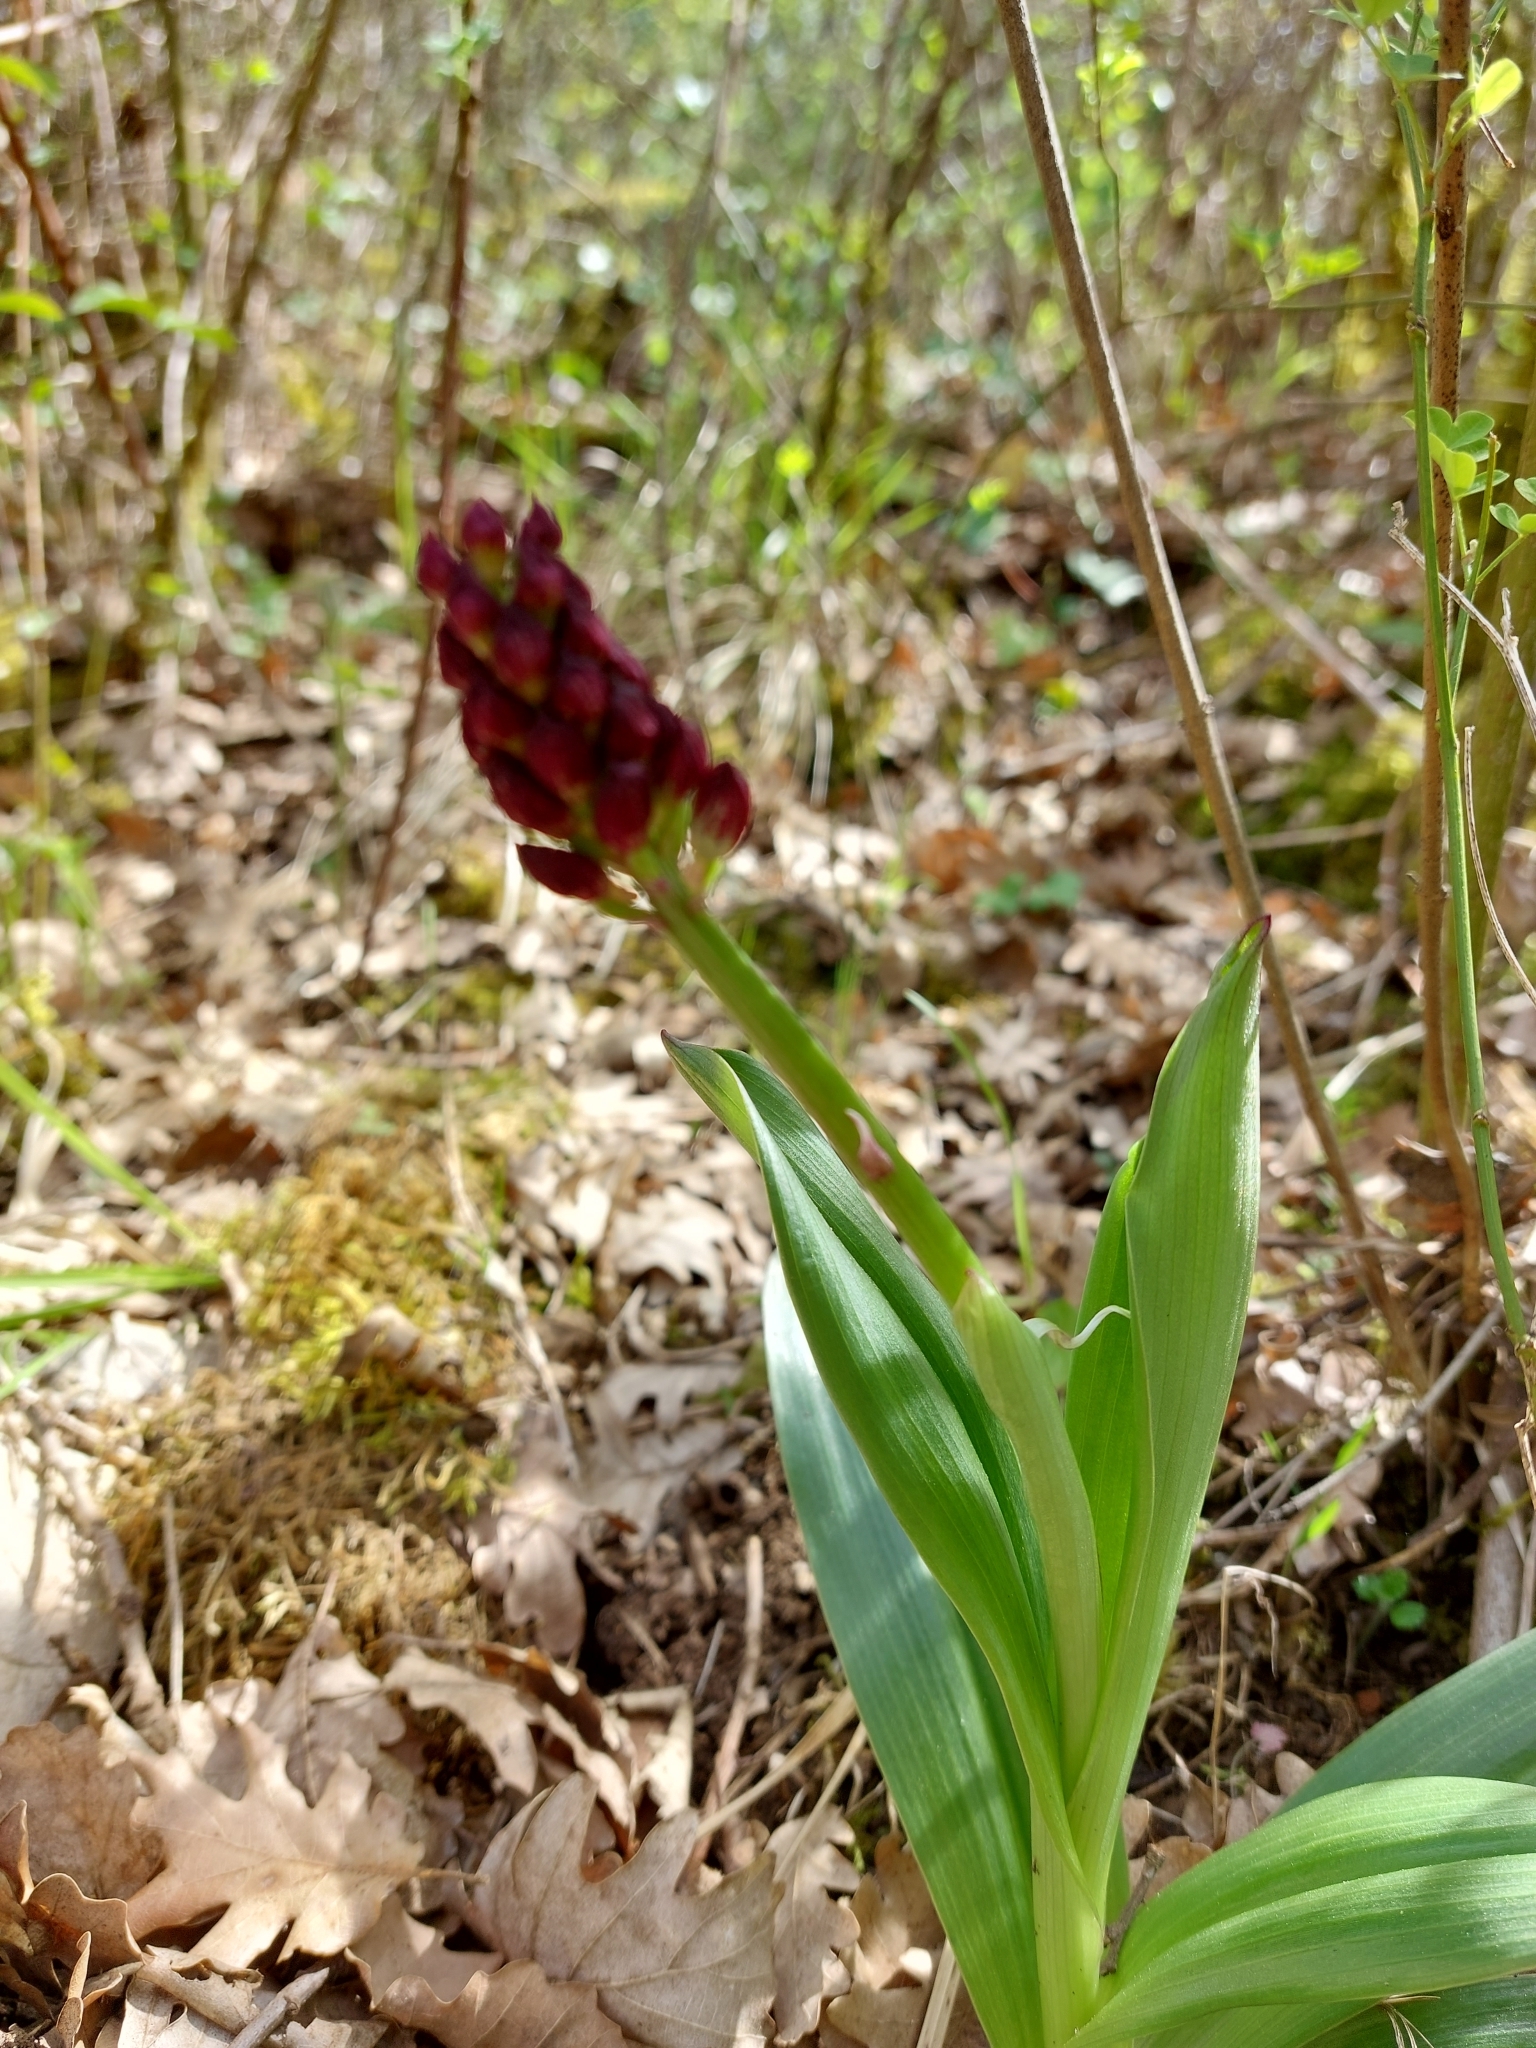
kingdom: Plantae
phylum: Tracheophyta
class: Liliopsida
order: Asparagales
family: Orchidaceae
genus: Orchis
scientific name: Orchis purpurea
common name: Lady orchid
